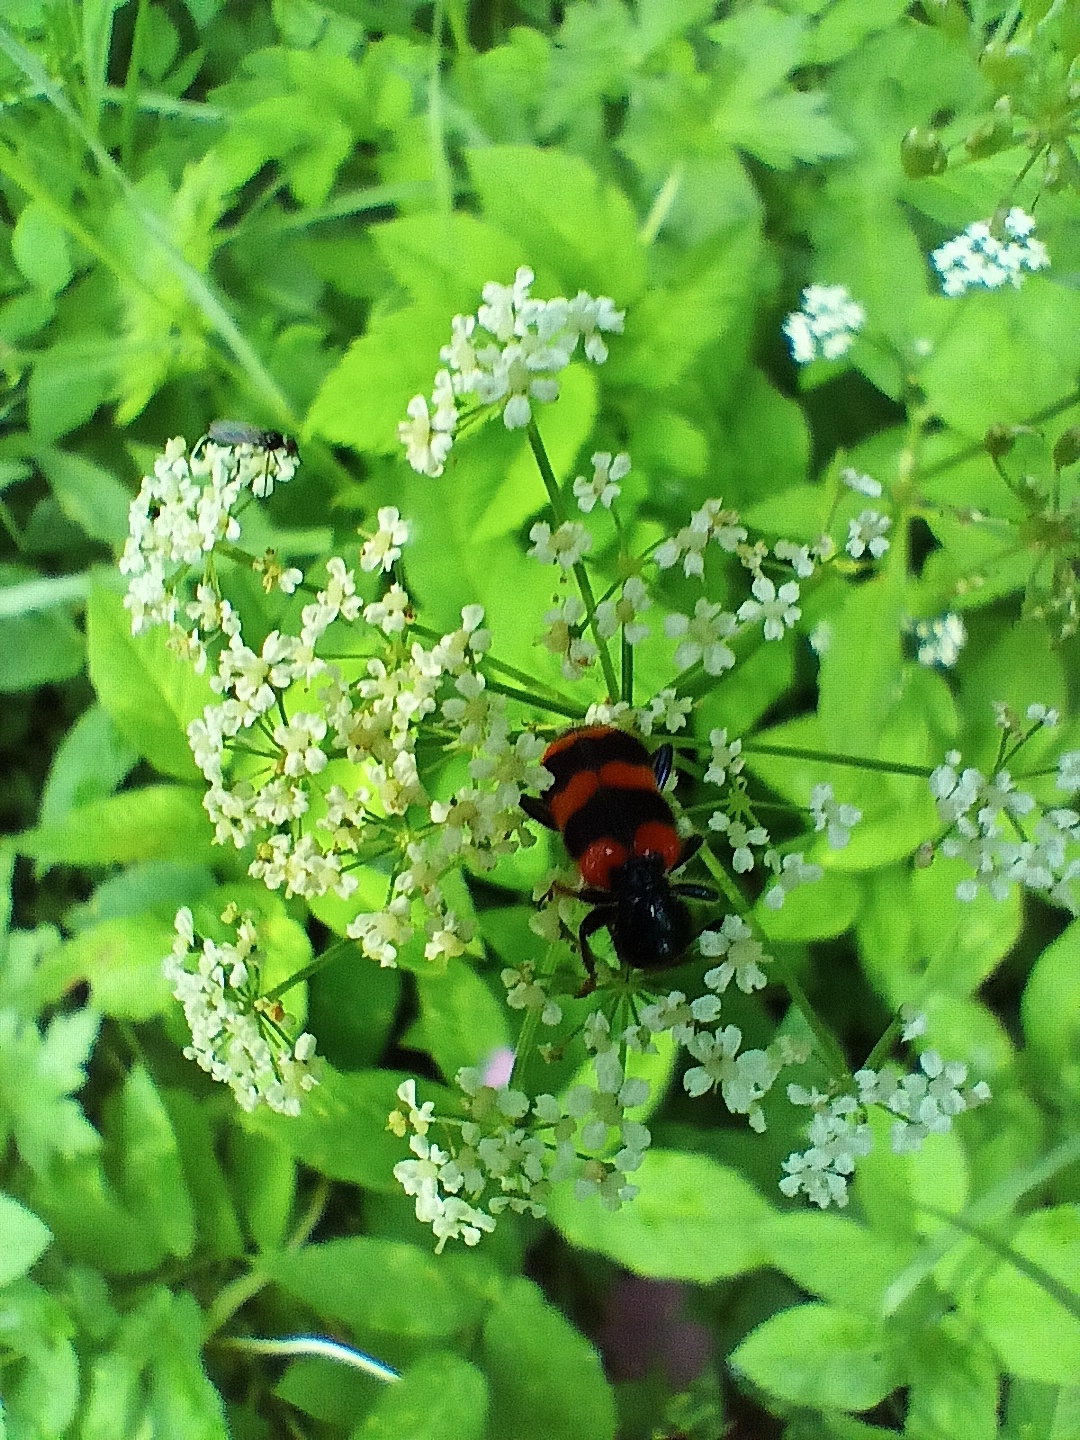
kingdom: Animalia
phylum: Arthropoda
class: Insecta
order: Coleoptera
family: Cleridae
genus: Trichodes
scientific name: Trichodes apiarius
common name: Bee-eating beetle
